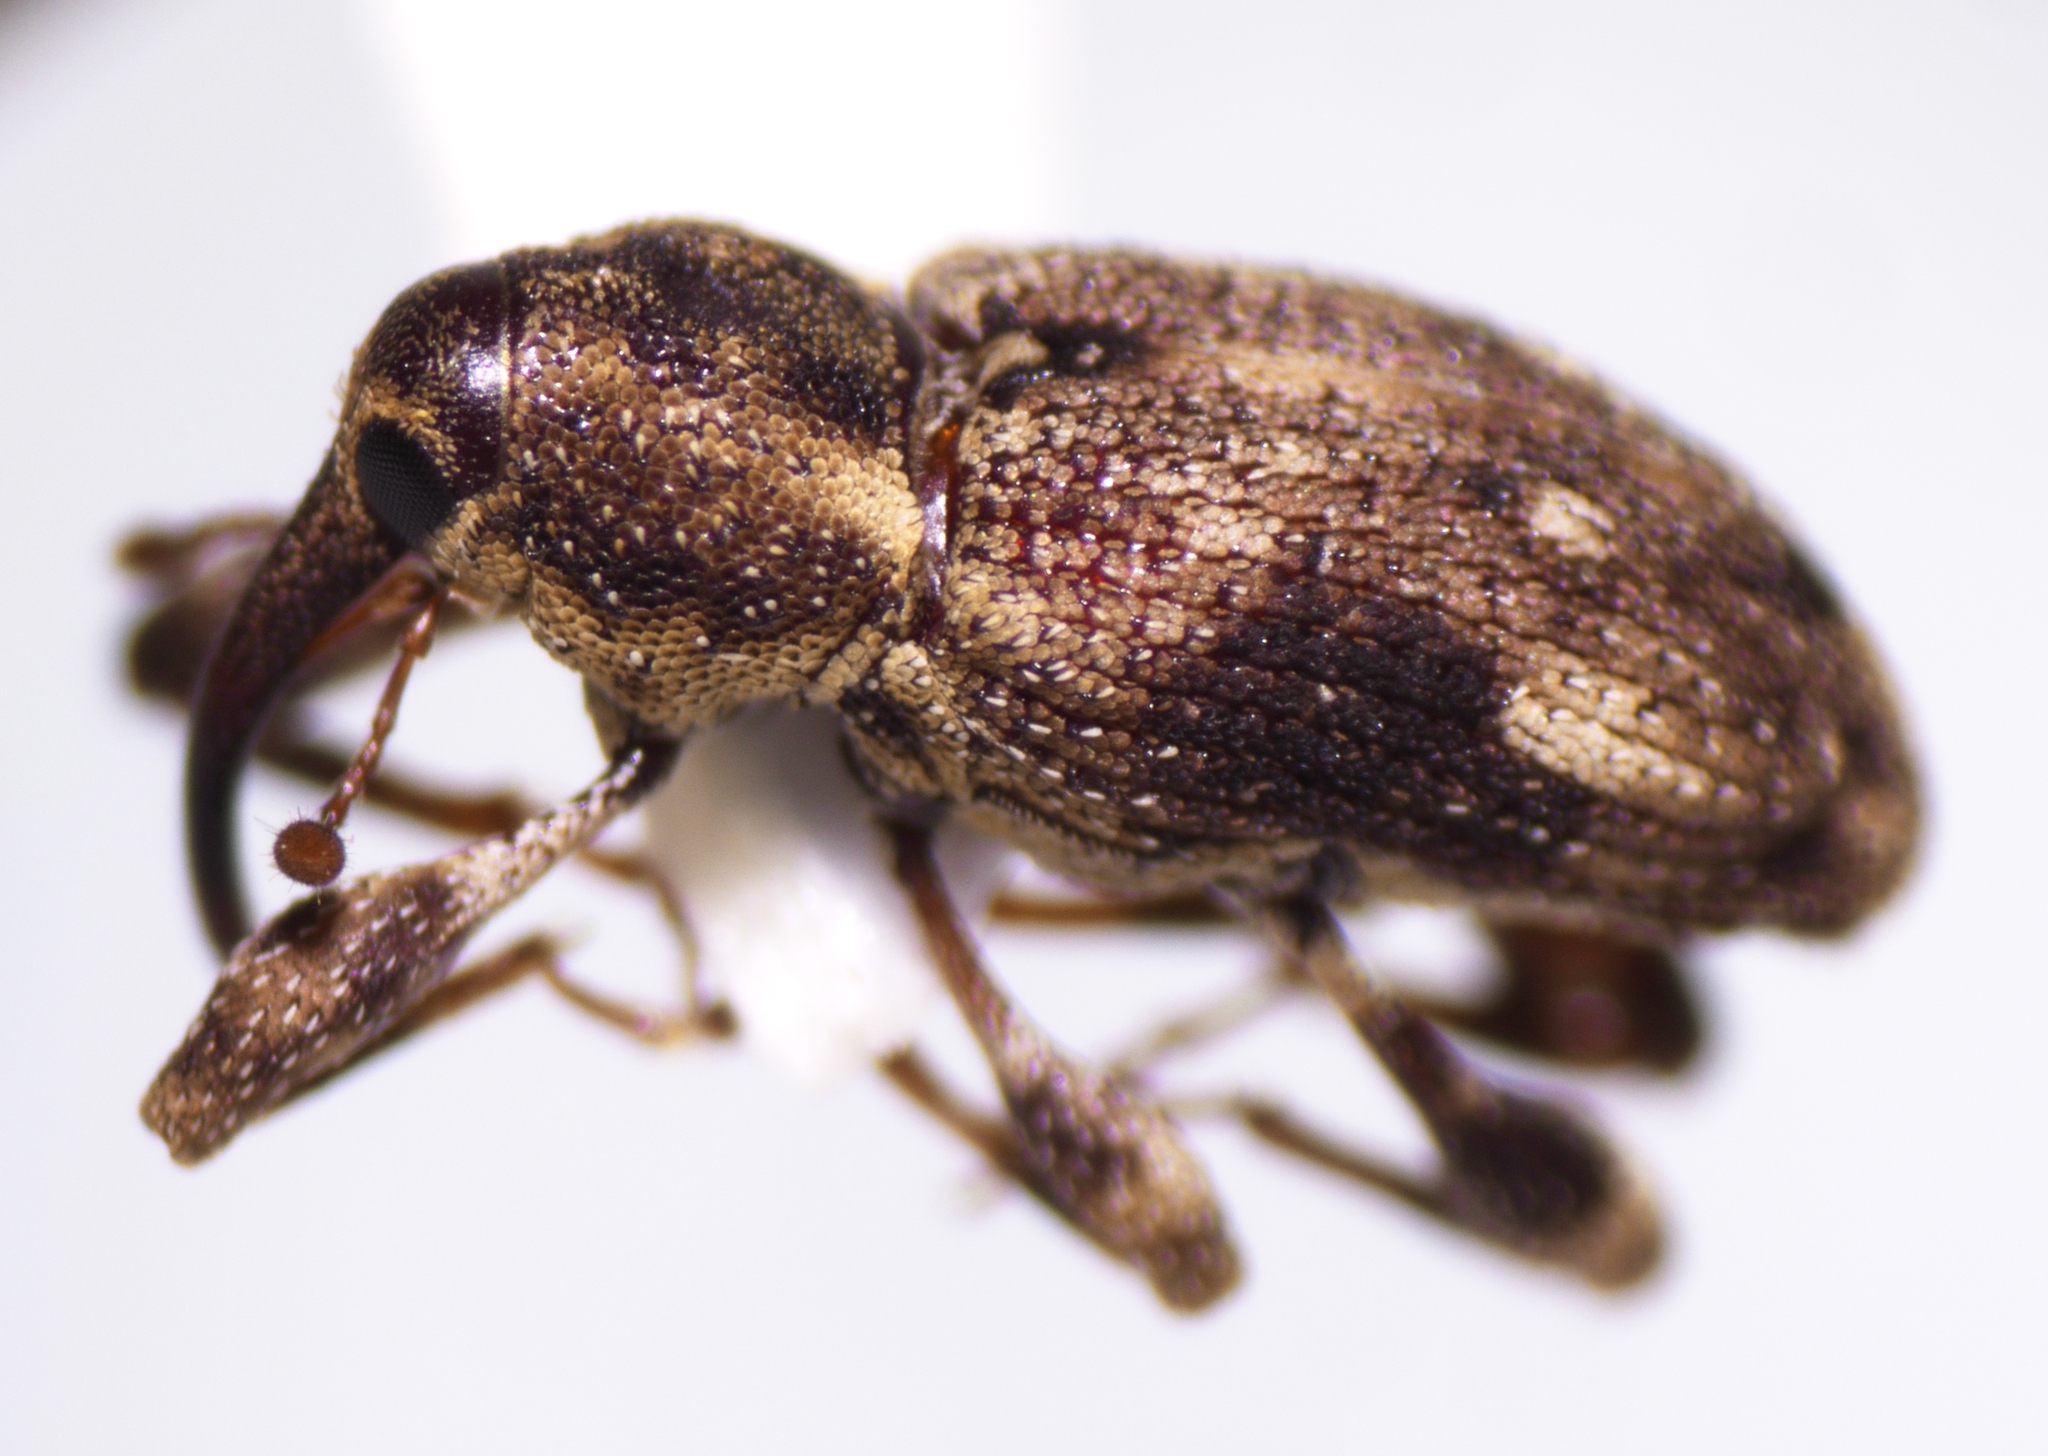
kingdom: Animalia
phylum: Arthropoda
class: Insecta
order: Coleoptera
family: Curculionidae
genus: Acicnemis
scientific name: Acicnemis variegata
